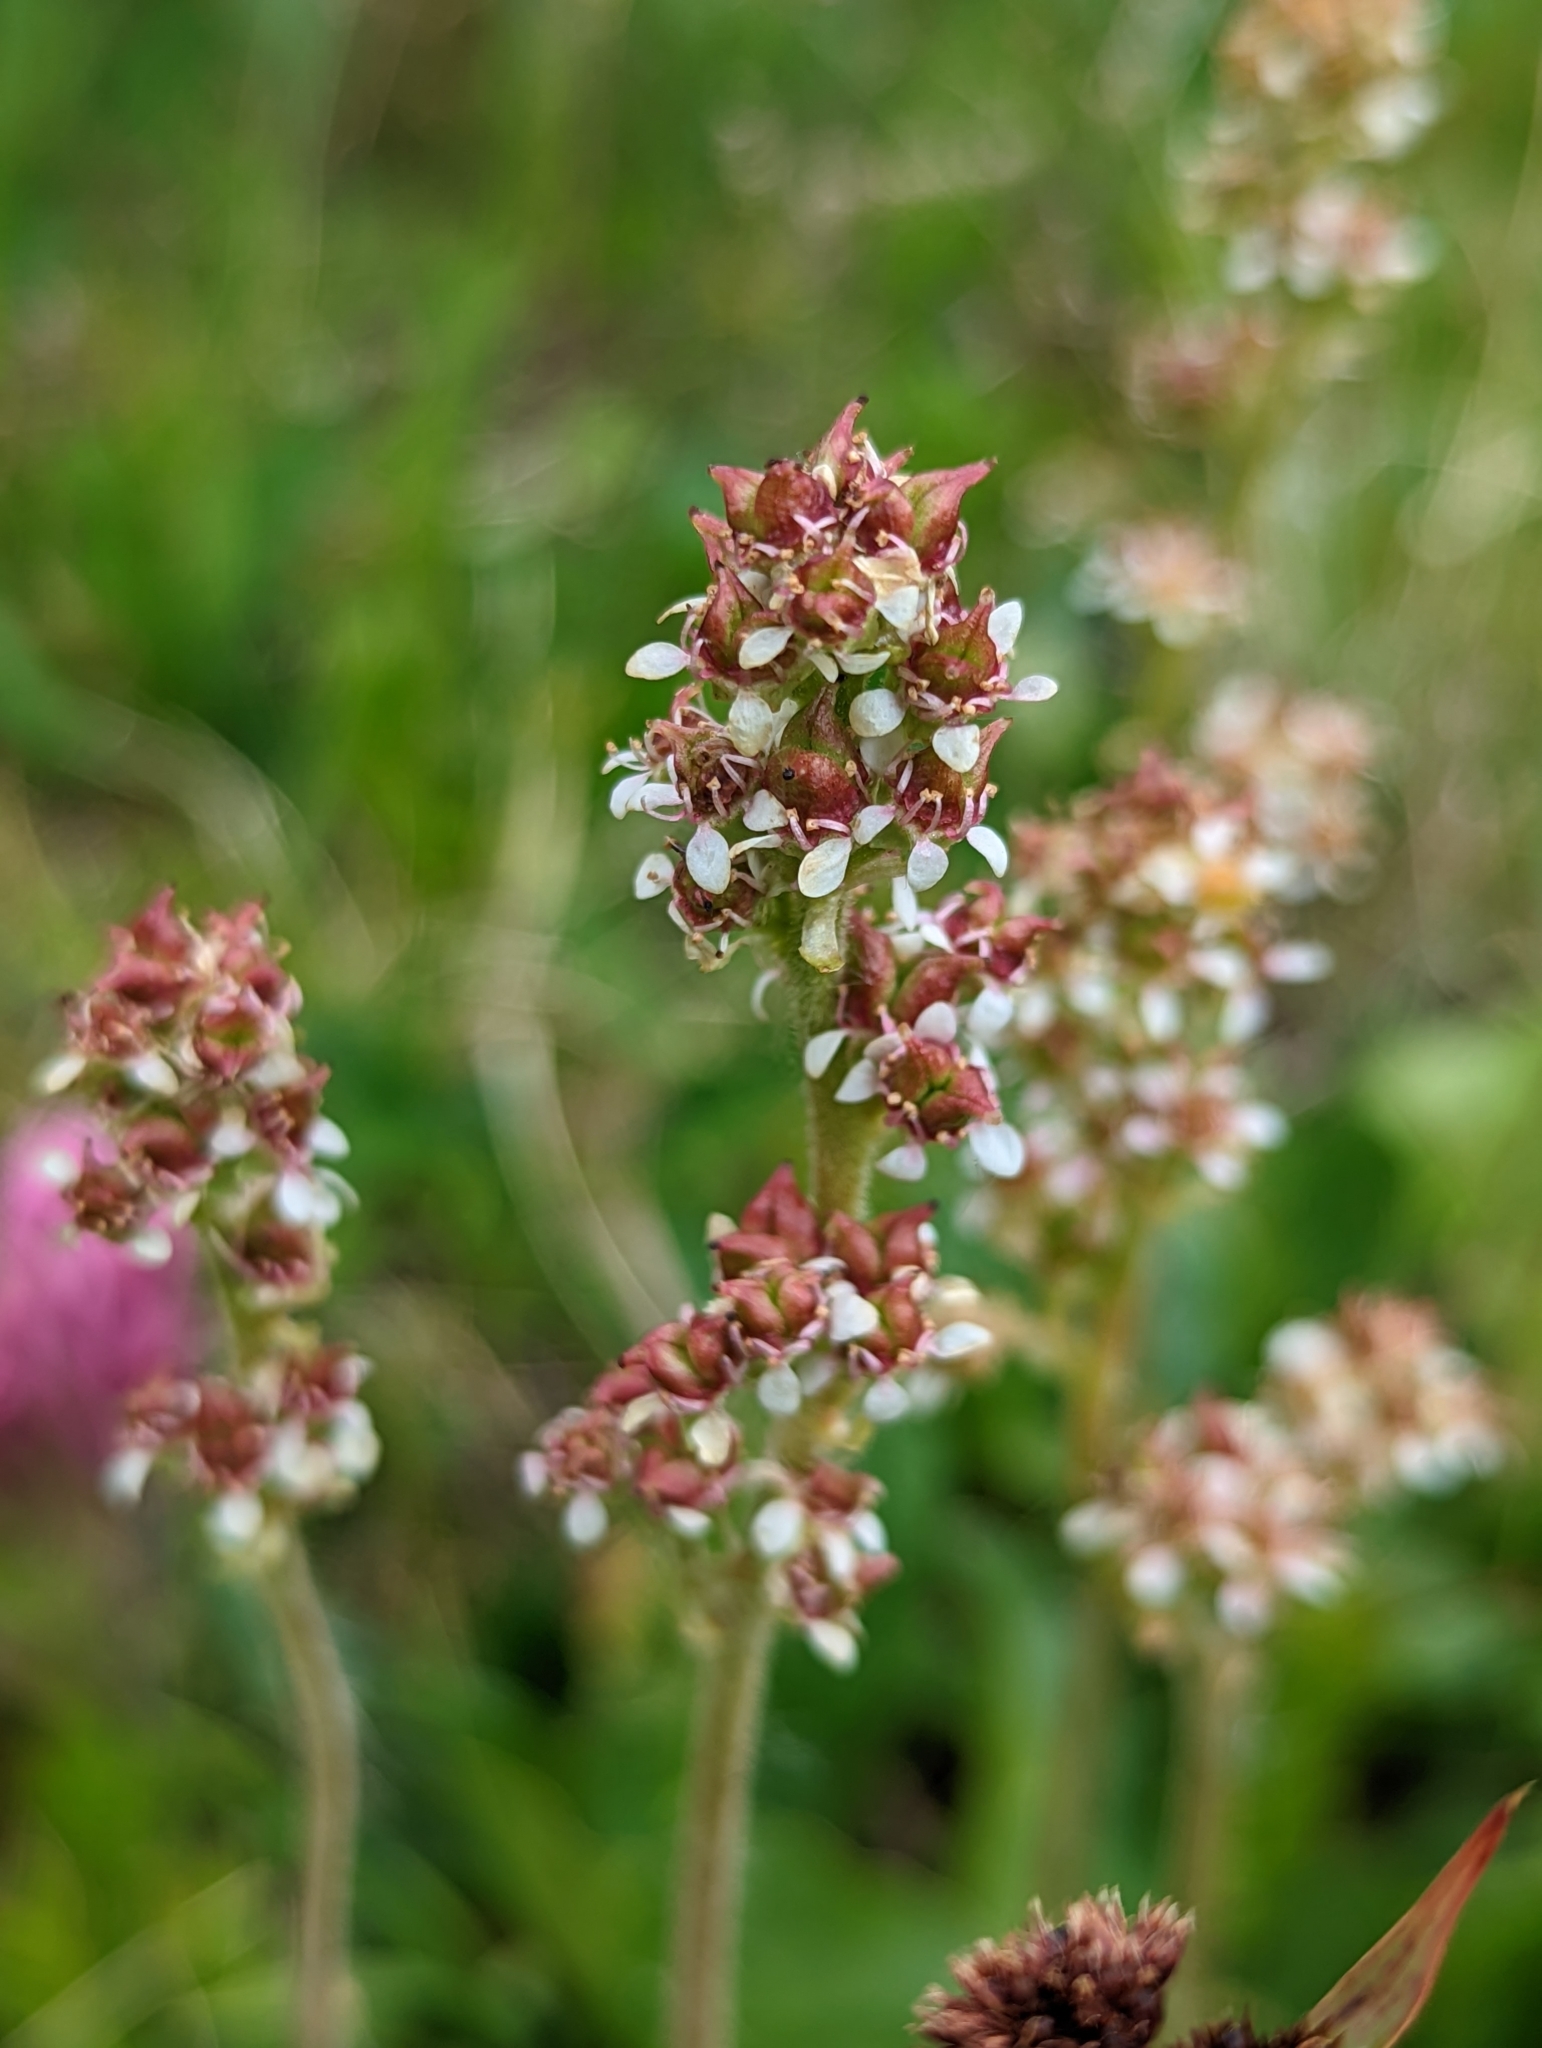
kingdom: Plantae
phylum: Tracheophyta
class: Magnoliopsida
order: Saxifragales
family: Saxifragaceae
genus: Micranthes
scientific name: Micranthes rhomboidea
